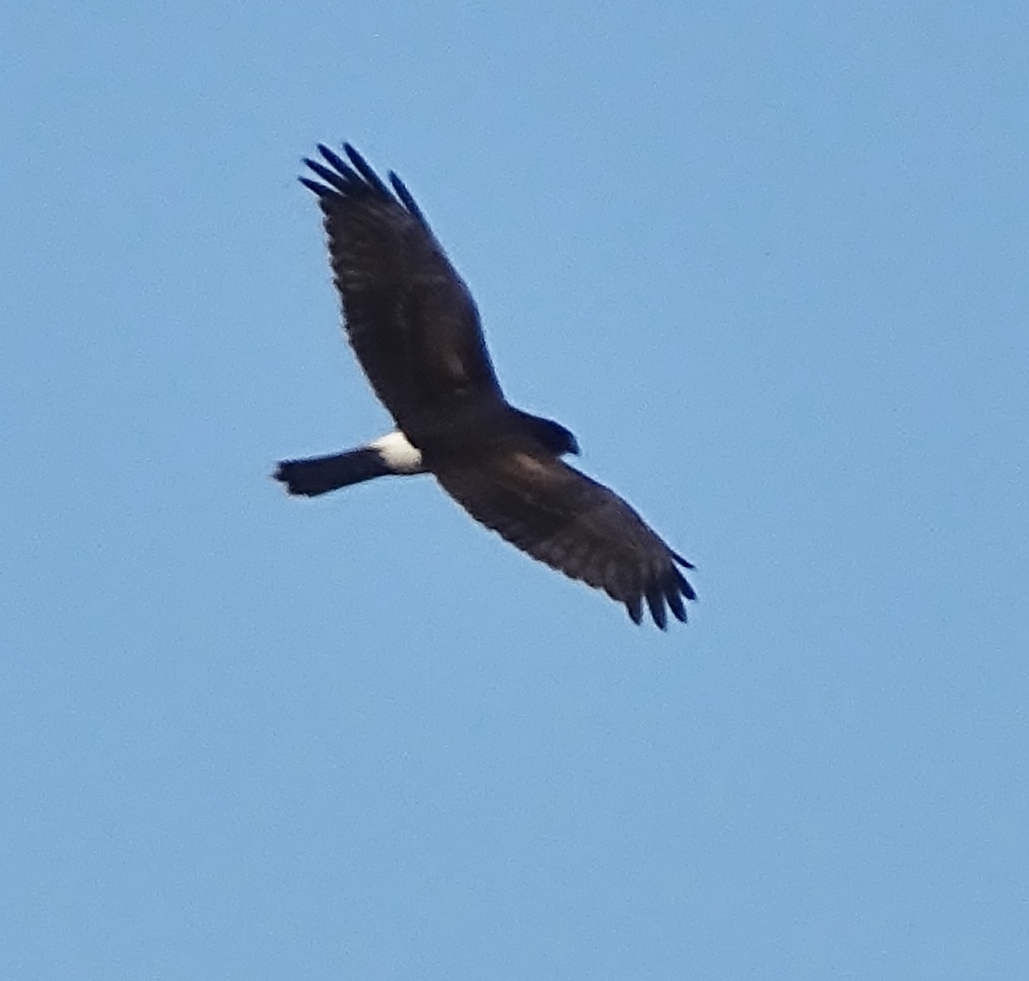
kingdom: Animalia
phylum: Chordata
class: Aves
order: Accipitriformes
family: Accipitridae
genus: Circus
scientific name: Circus cyaneus
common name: Hen harrier
